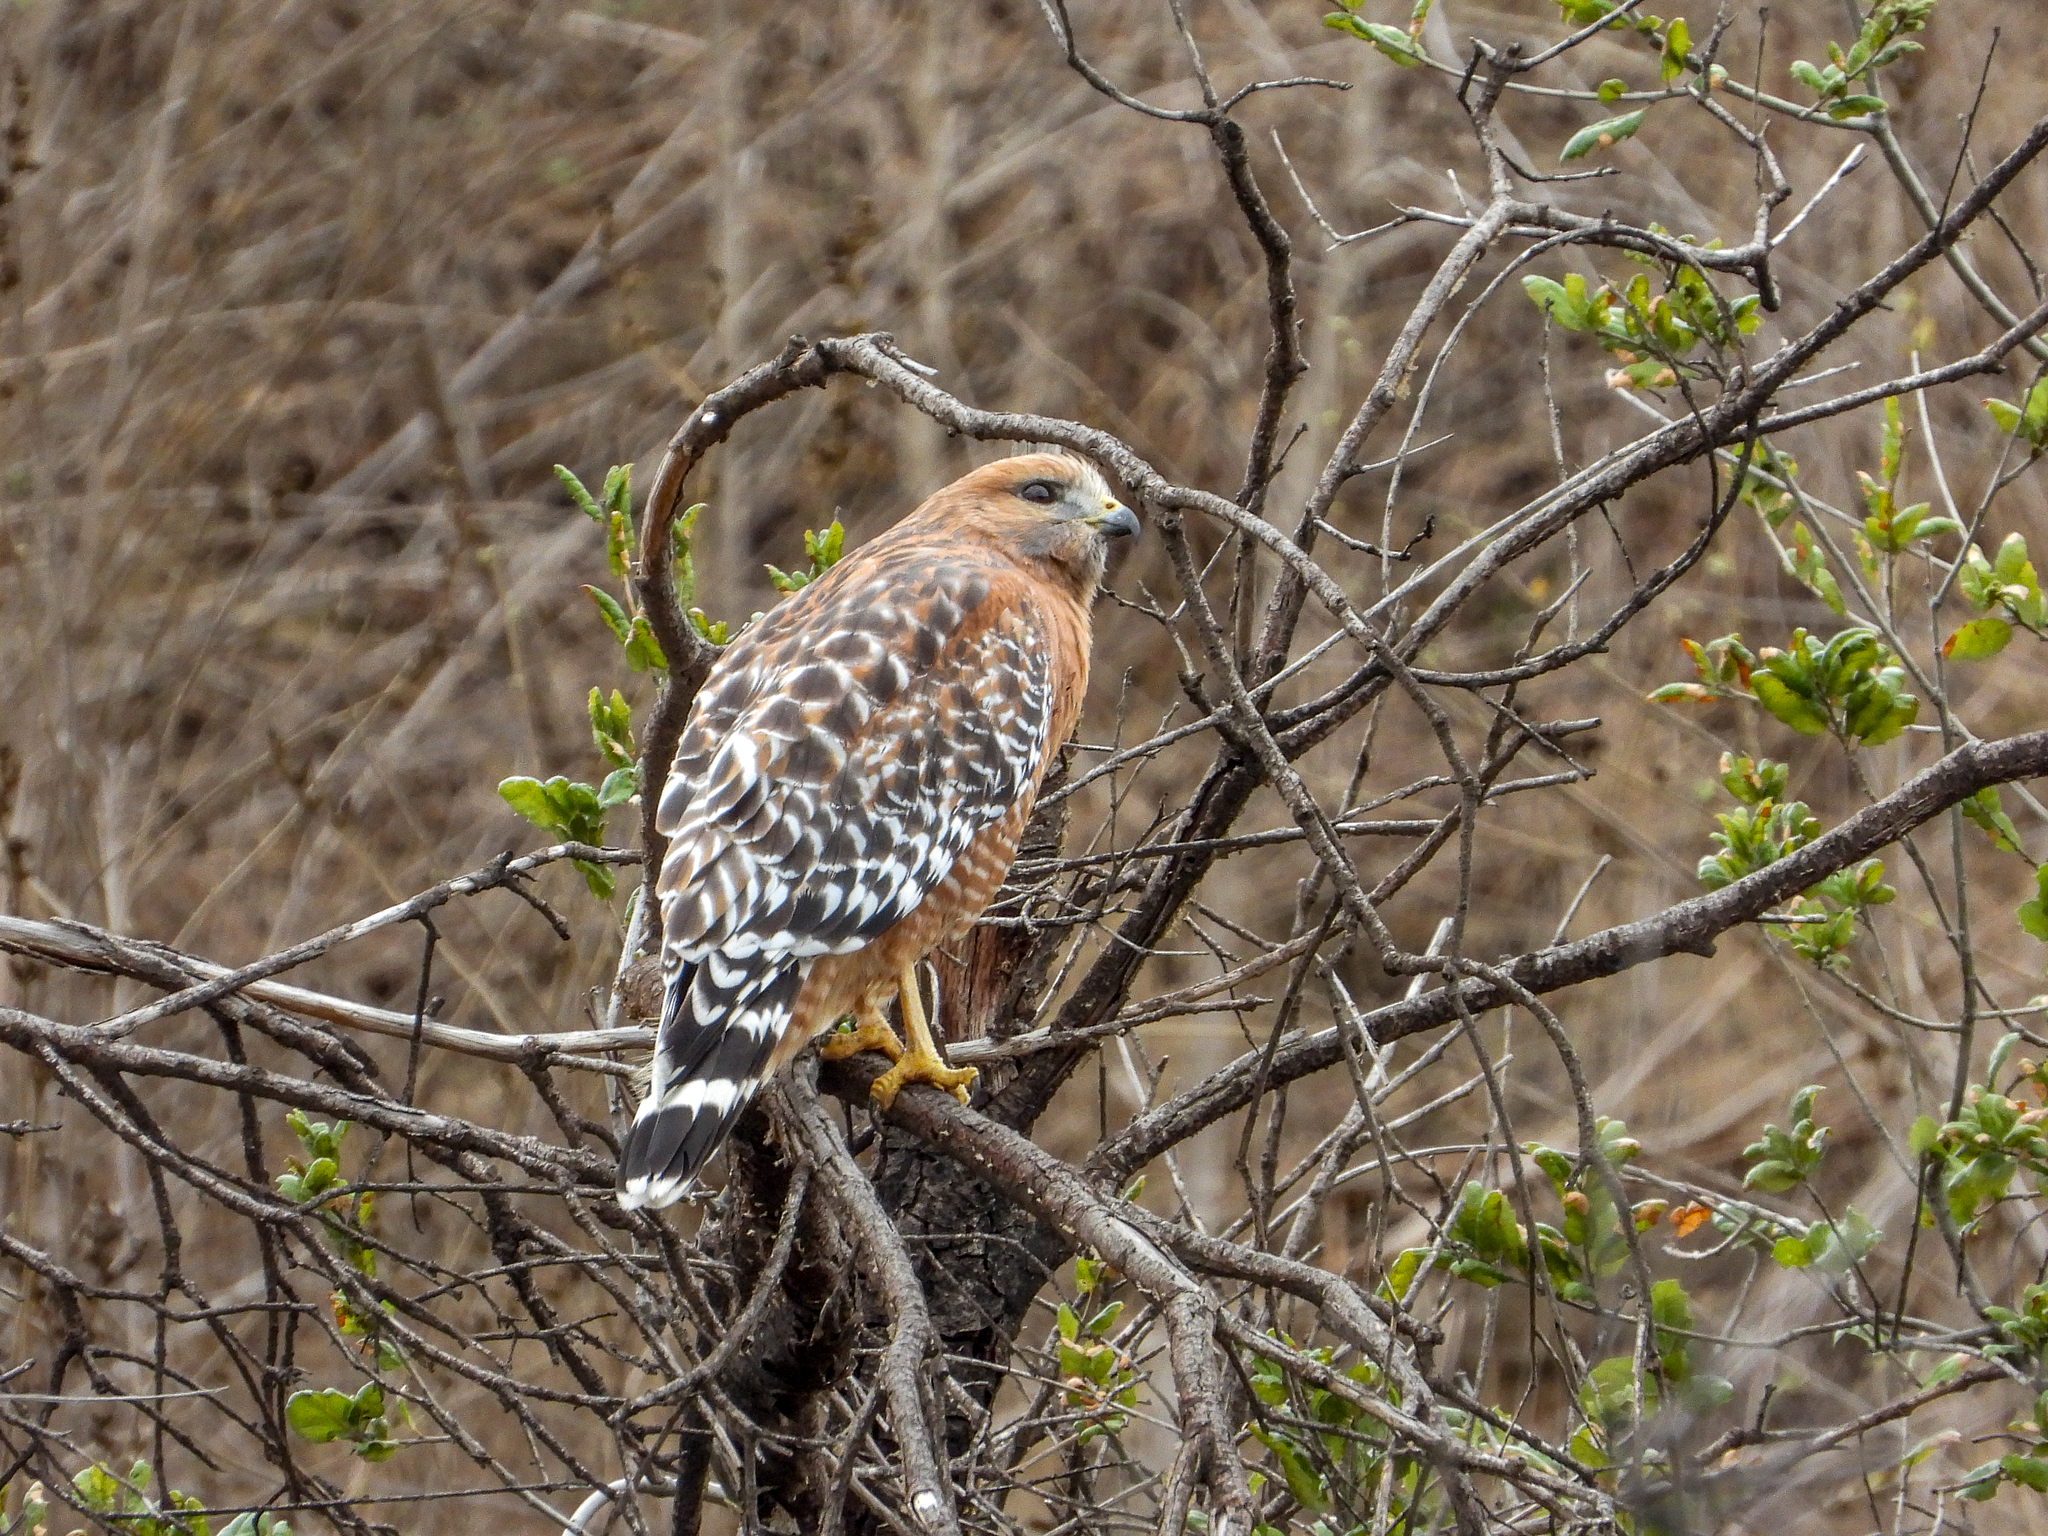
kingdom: Animalia
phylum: Chordata
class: Aves
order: Accipitriformes
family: Accipitridae
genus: Buteo
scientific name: Buteo lineatus
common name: Red-shouldered hawk
